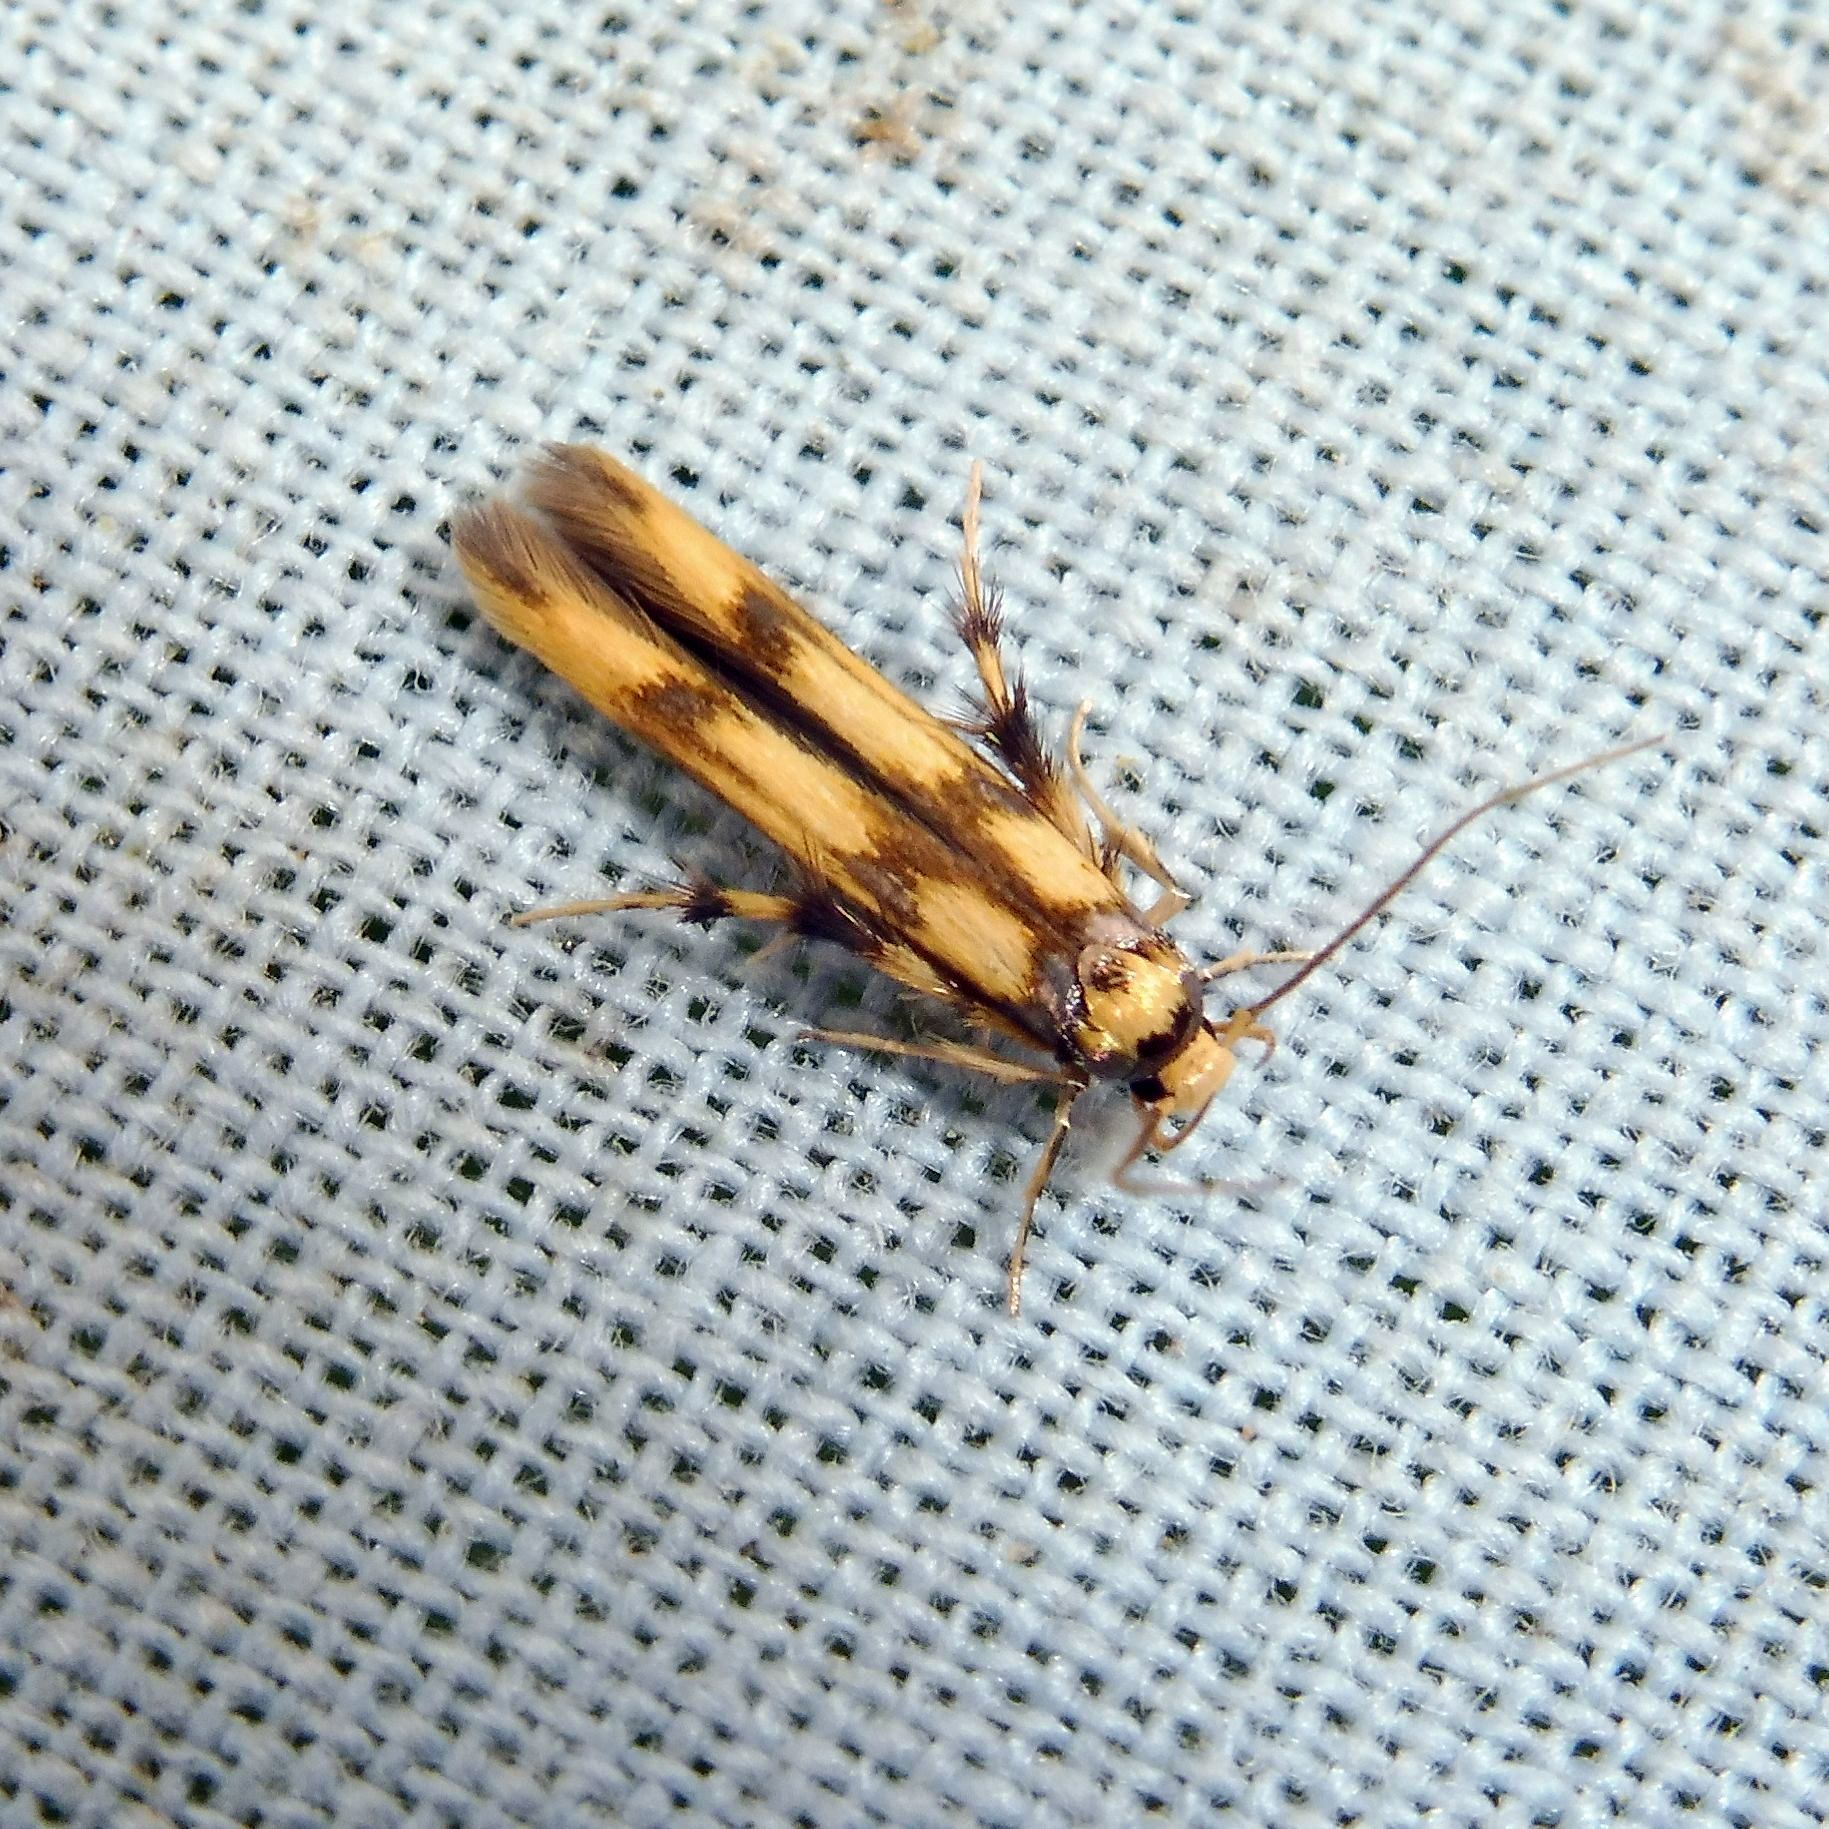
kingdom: Animalia
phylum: Arthropoda
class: Insecta
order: Lepidoptera
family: Stathmopodidae
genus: Stathmopoda
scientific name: Stathmopoda pedella
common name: Alder signal
